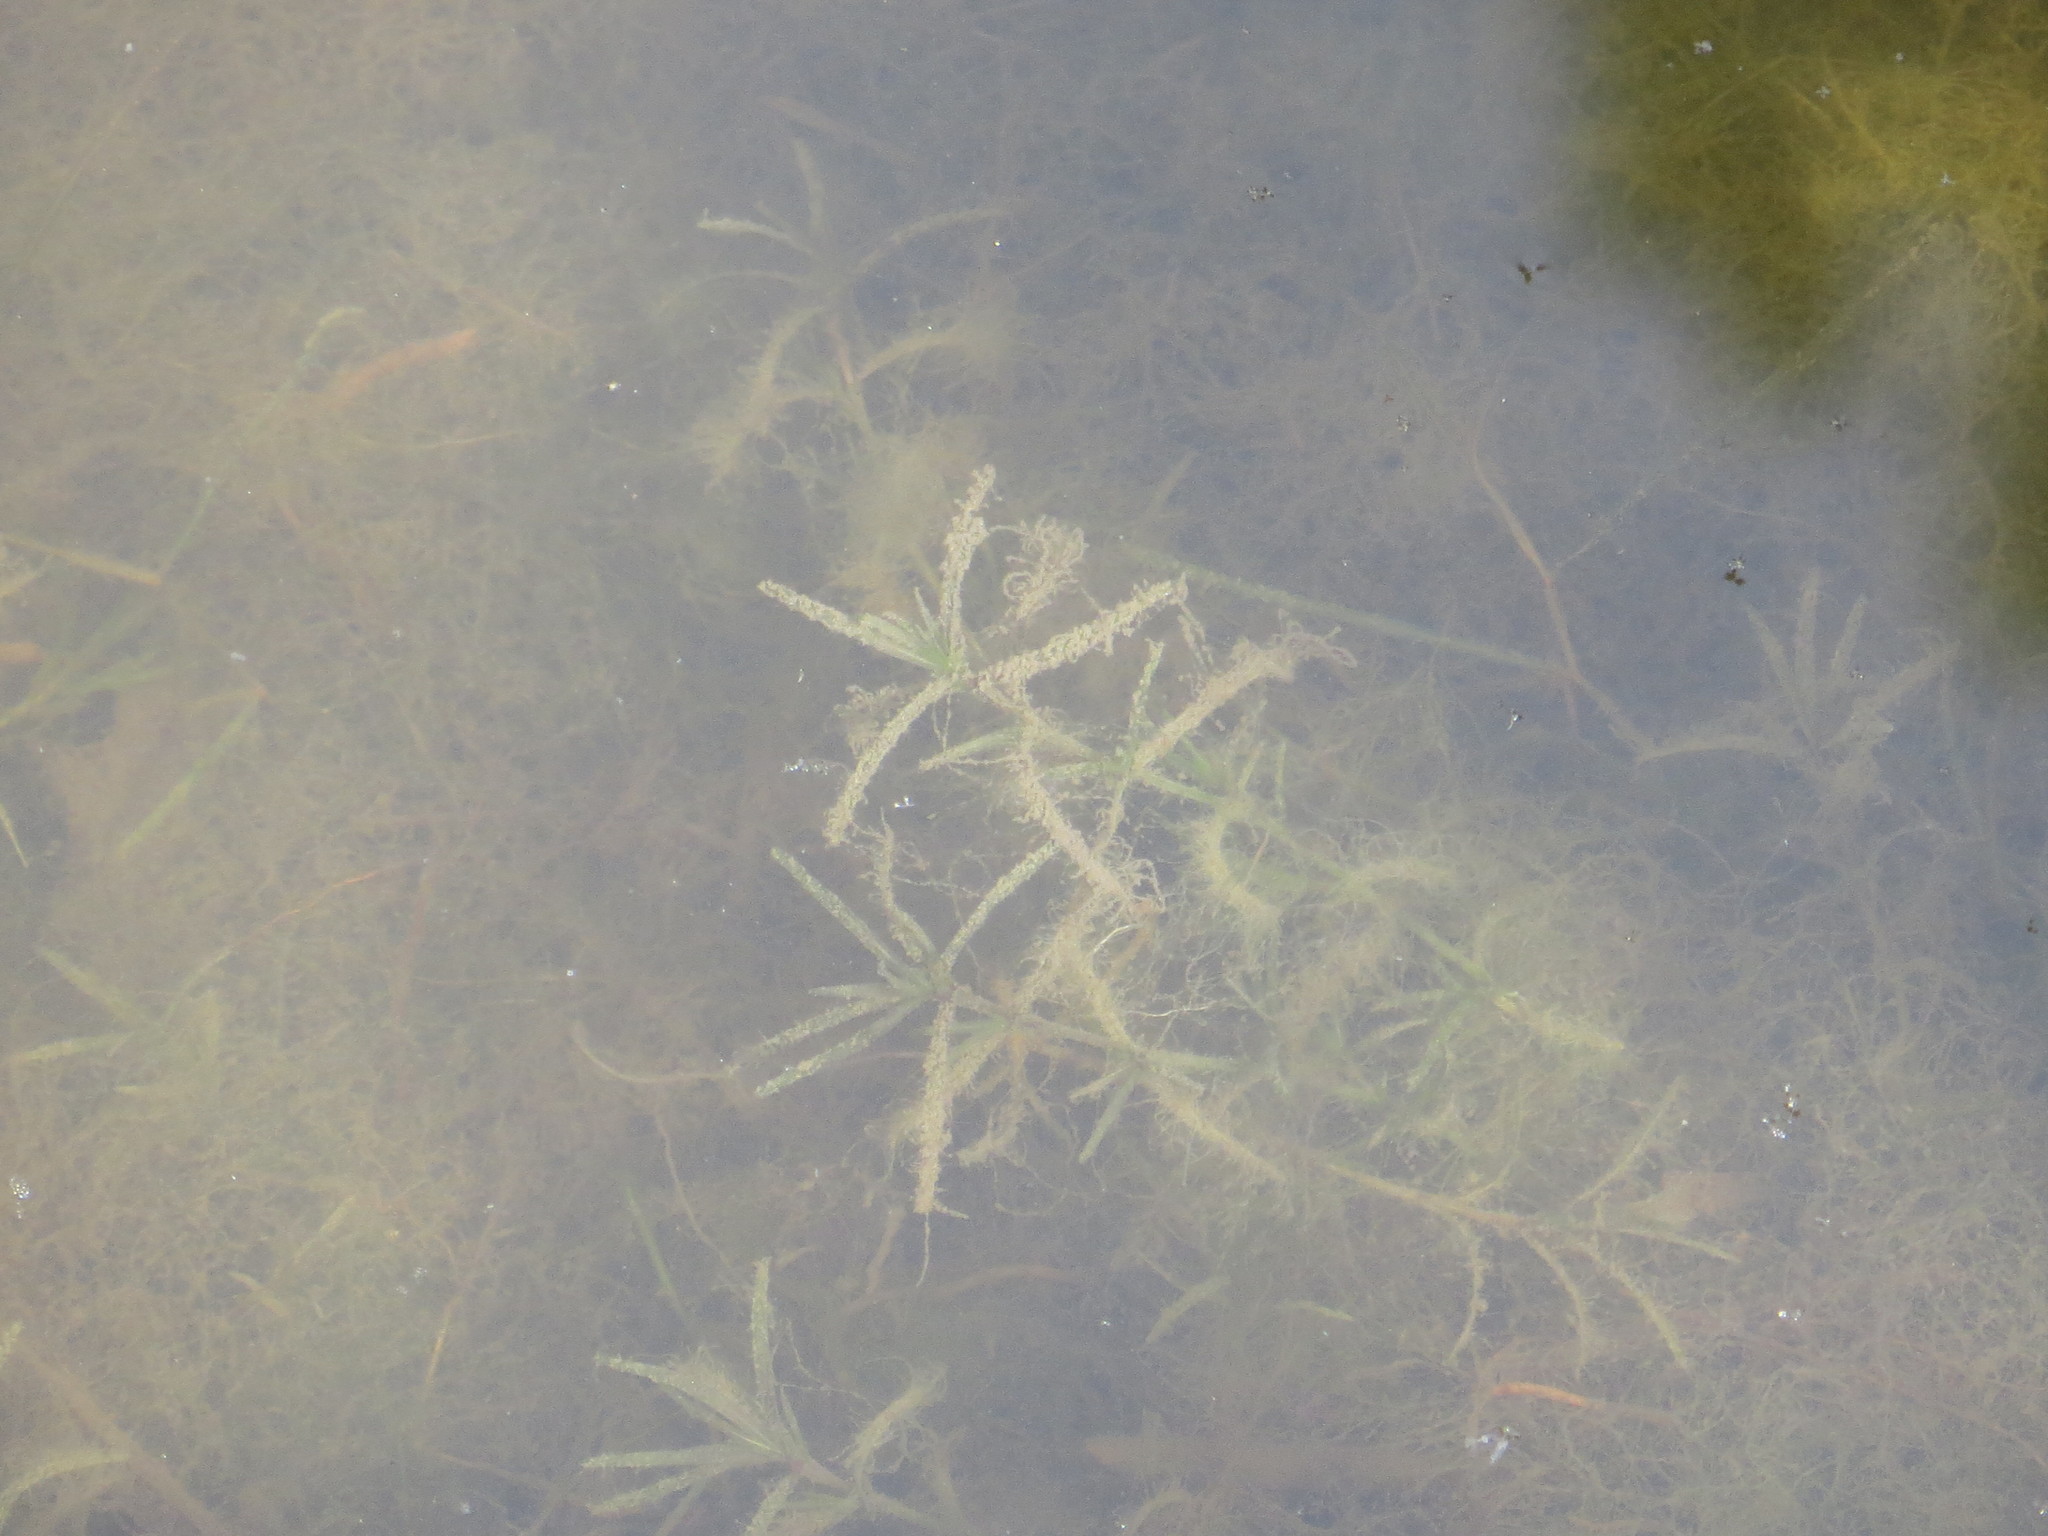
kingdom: Plantae
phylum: Tracheophyta
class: Liliopsida
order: Alismatales
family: Hydrocharitaceae
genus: Najas
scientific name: Najas guadalupensis
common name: Southern naiad
